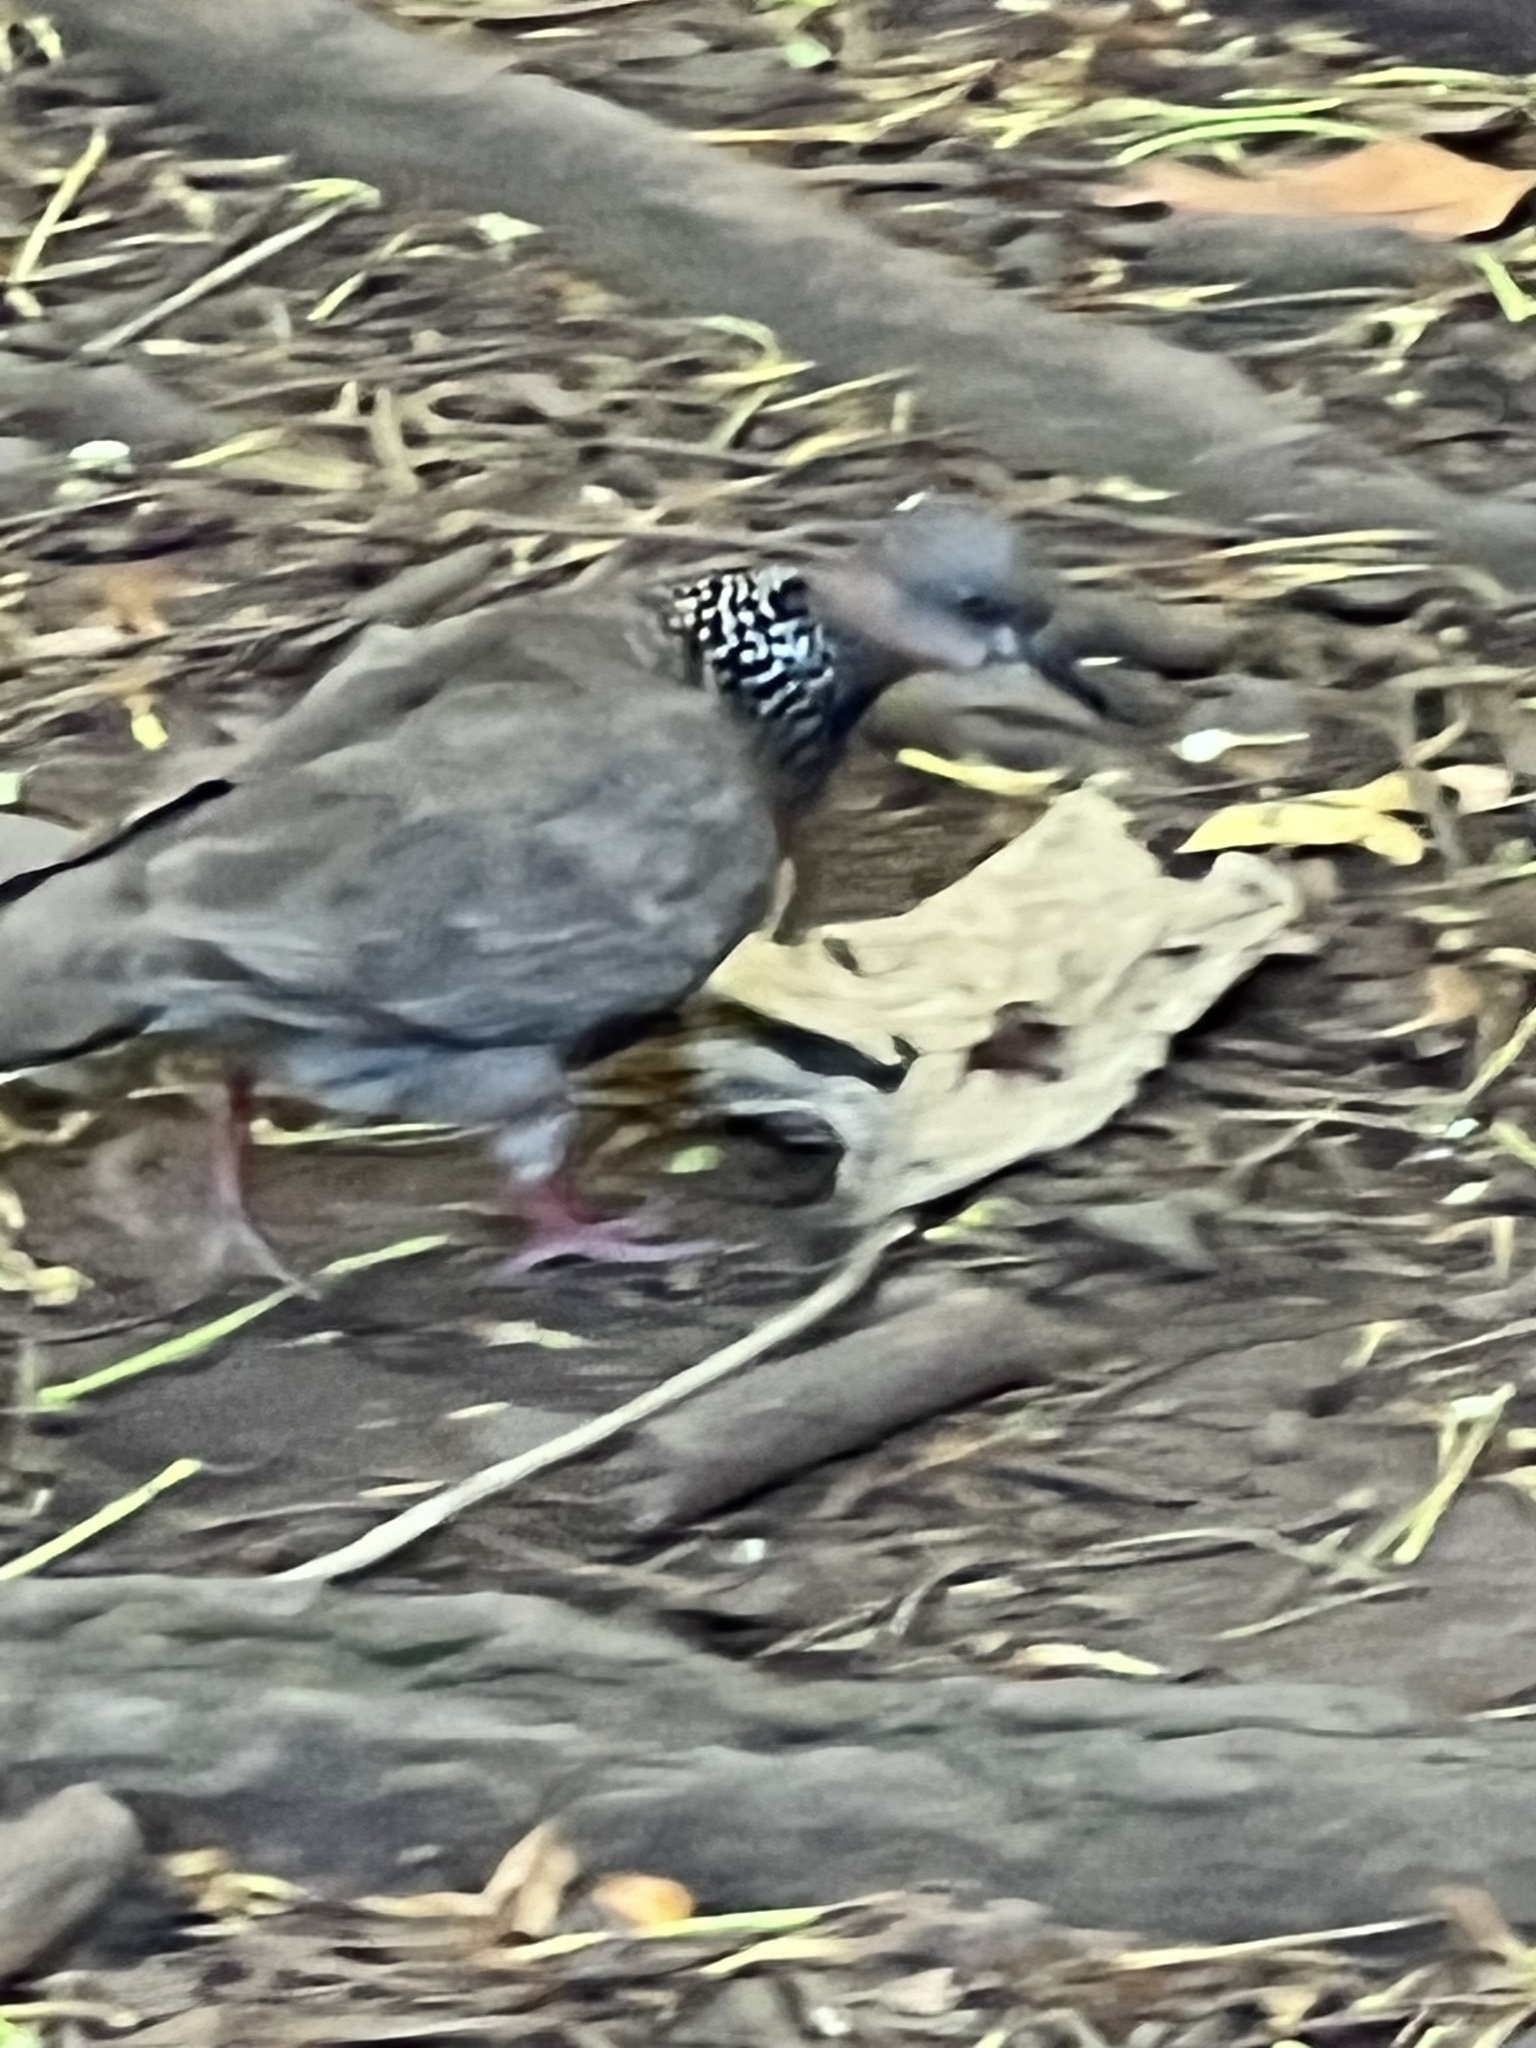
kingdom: Animalia
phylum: Chordata
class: Aves
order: Columbiformes
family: Columbidae
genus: Spilopelia
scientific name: Spilopelia chinensis
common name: Spotted dove
